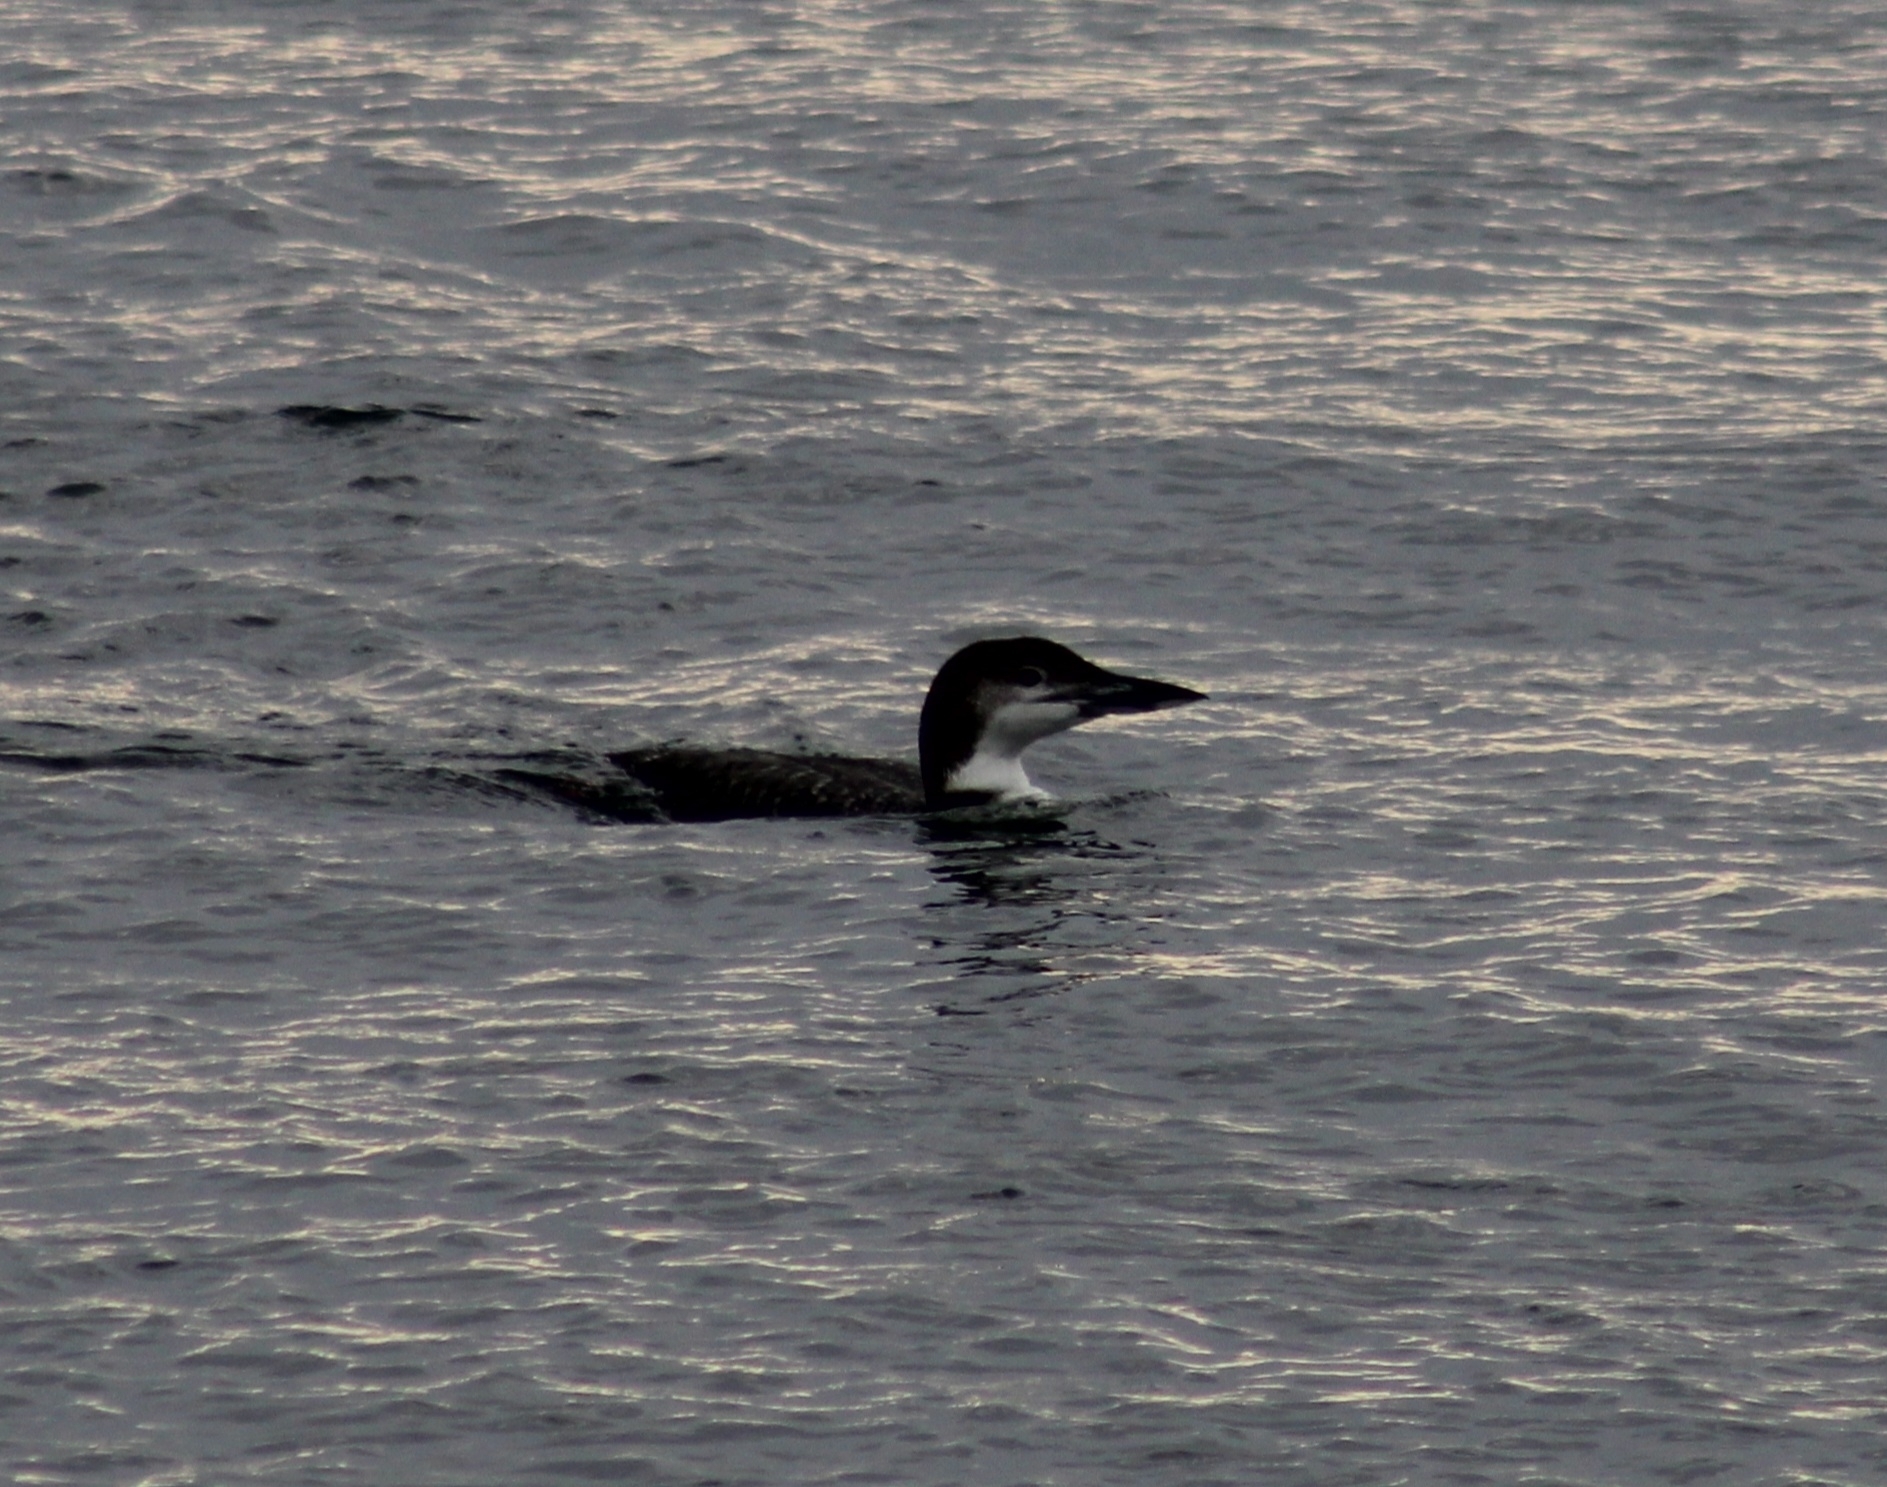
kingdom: Animalia
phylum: Chordata
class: Aves
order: Gaviiformes
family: Gaviidae
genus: Gavia
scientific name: Gavia immer
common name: Common loon
